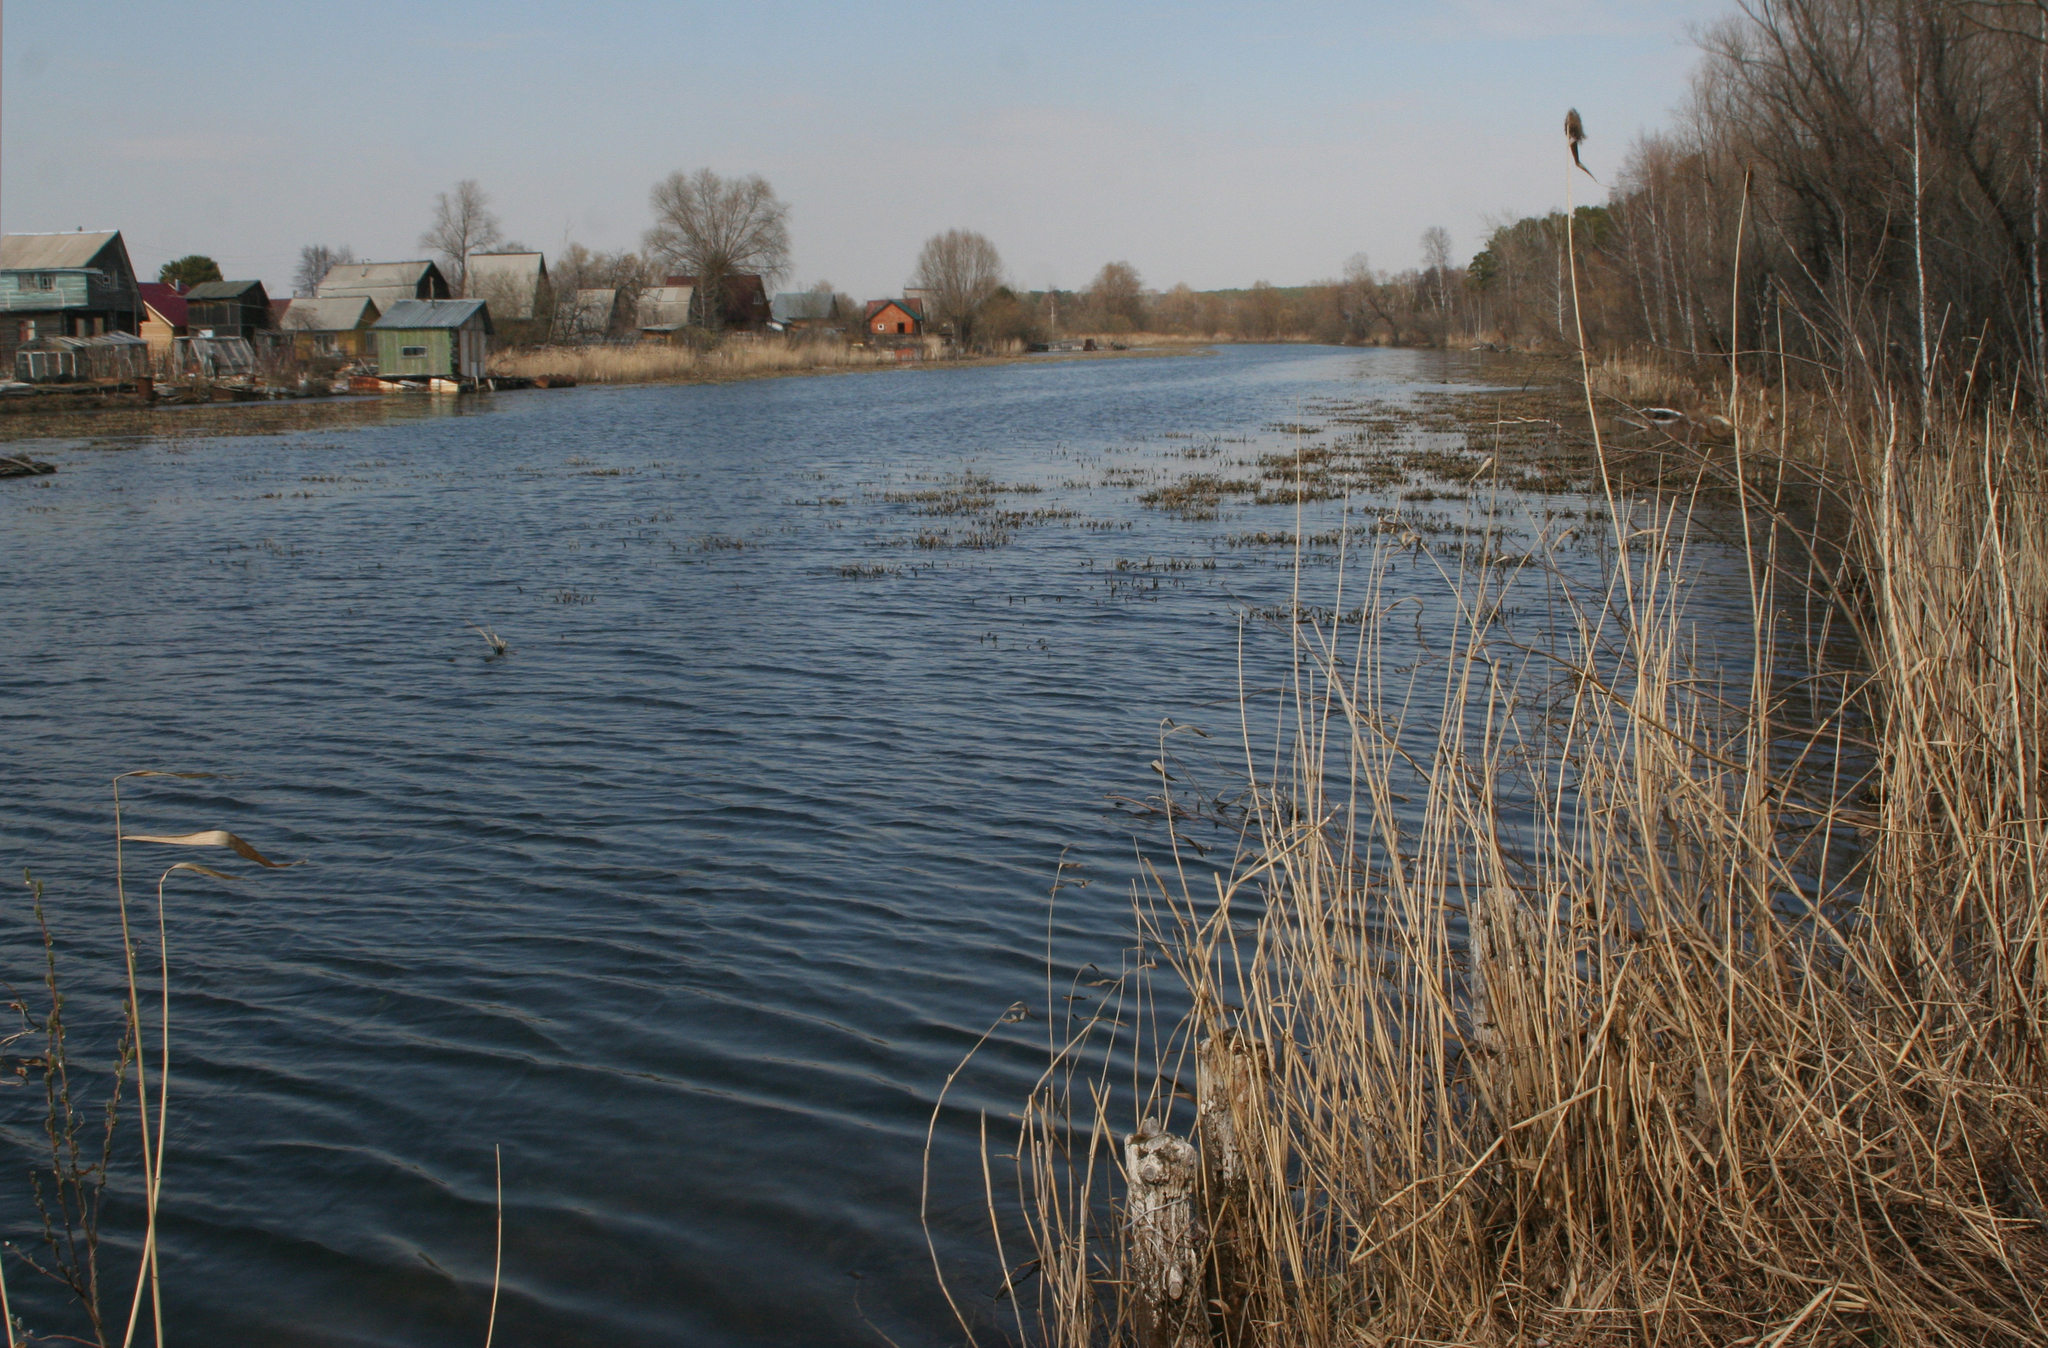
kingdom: Plantae
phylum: Tracheophyta
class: Liliopsida
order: Poales
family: Poaceae
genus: Phragmites
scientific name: Phragmites australis
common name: Common reed
